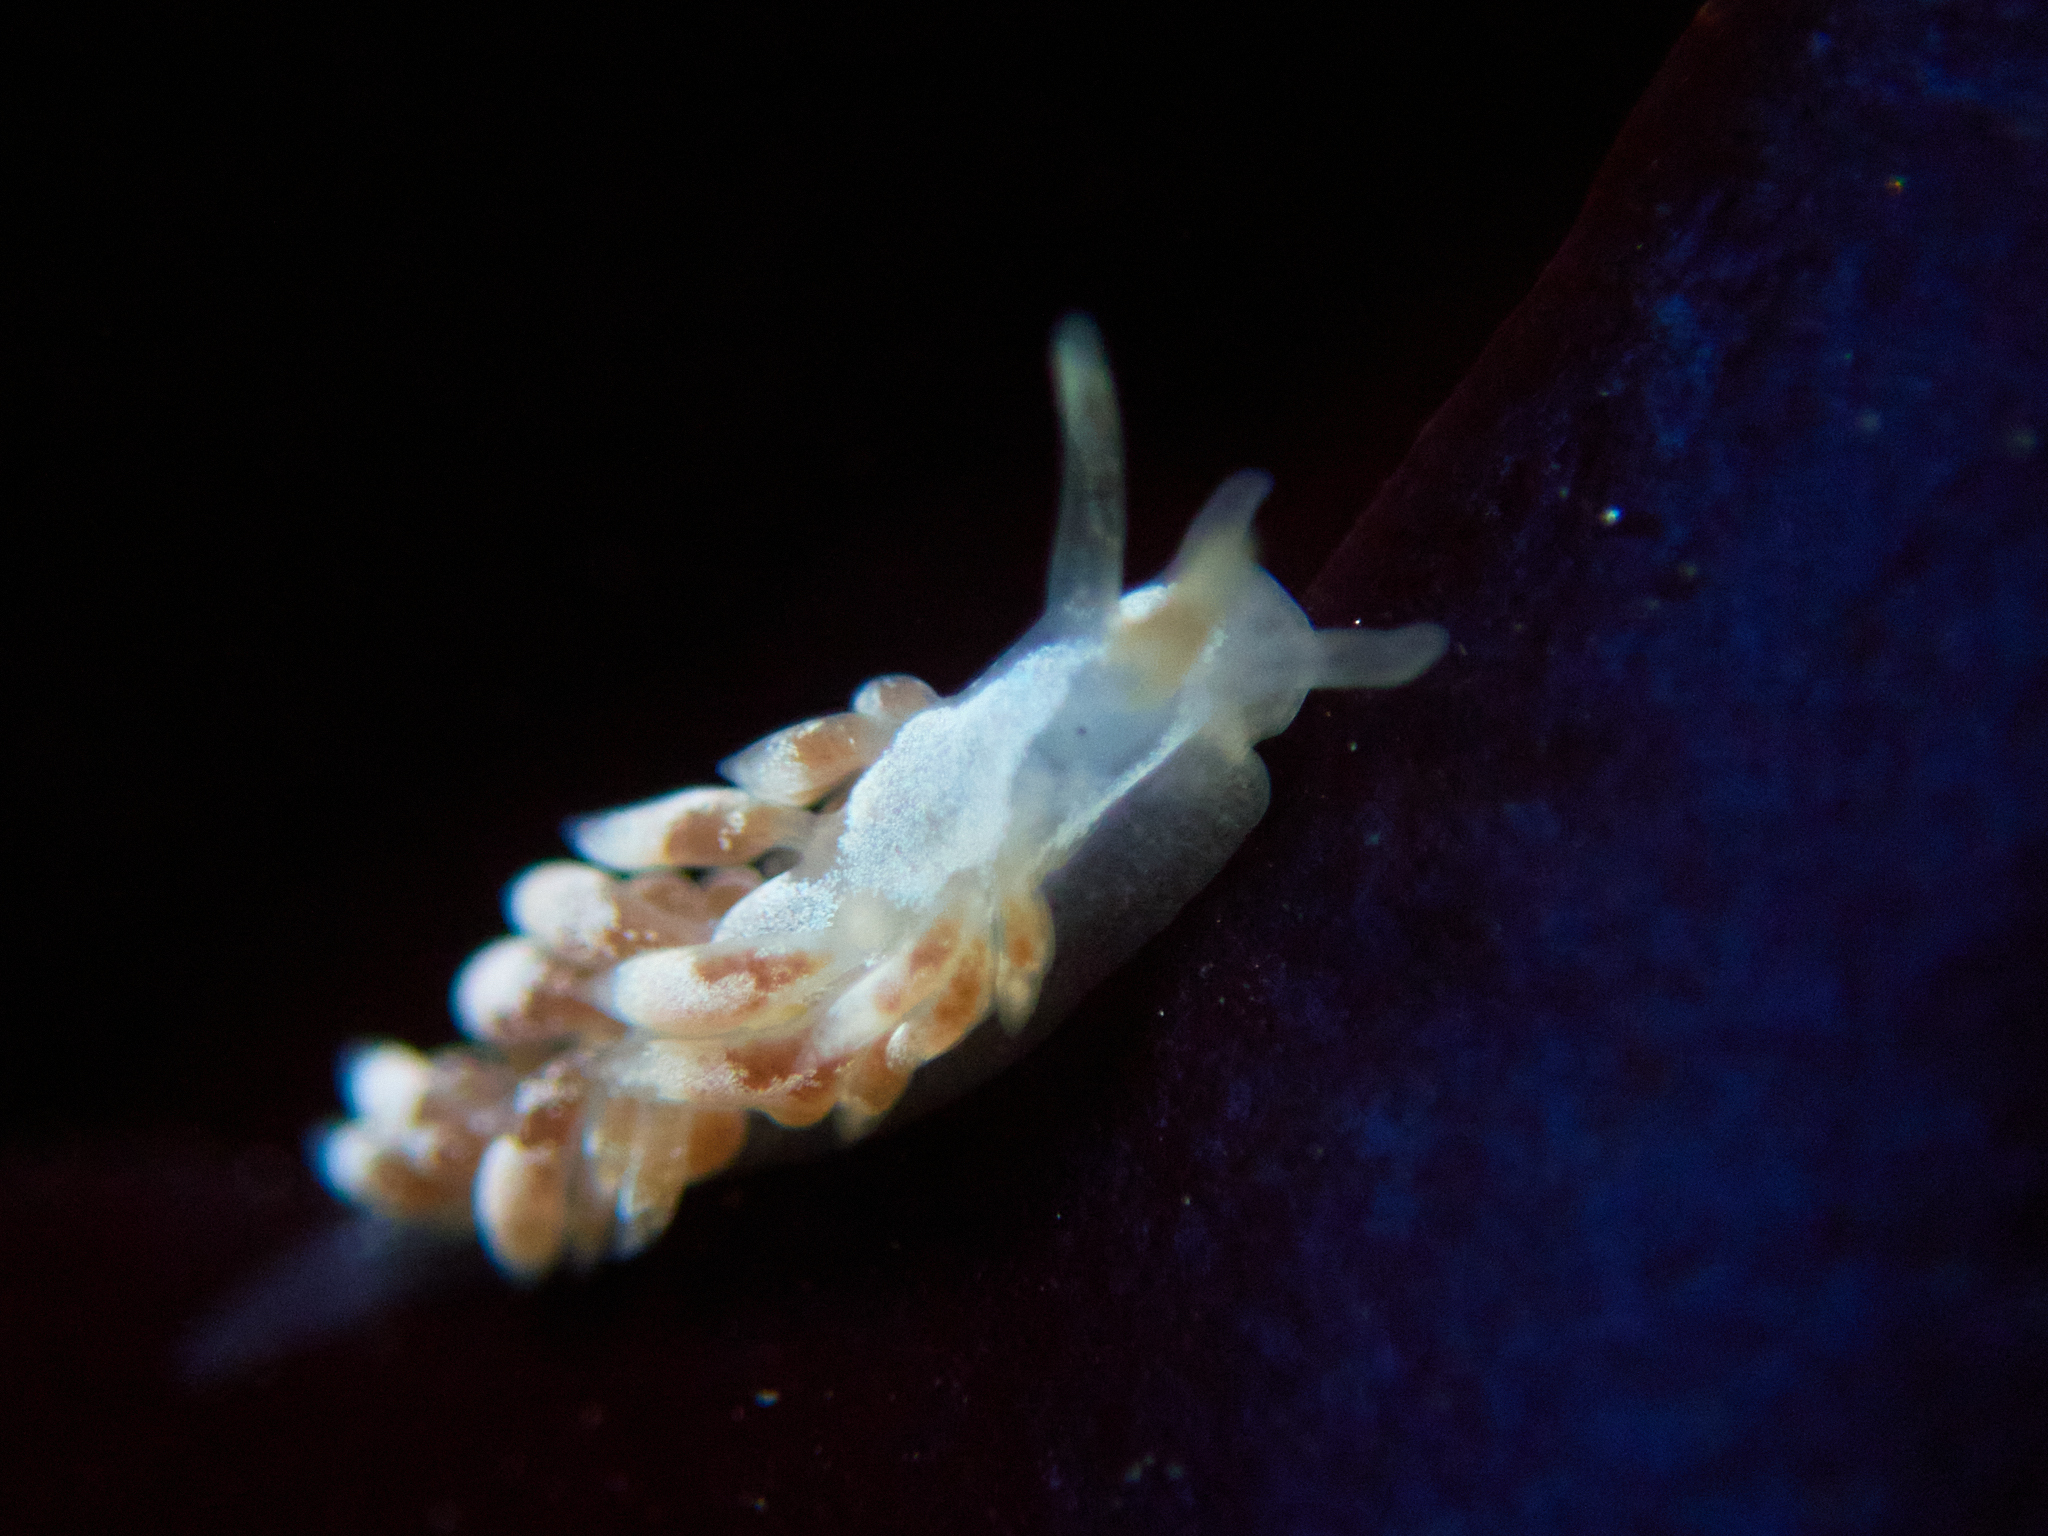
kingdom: Animalia
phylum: Mollusca
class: Gastropoda
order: Nudibranchia
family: Trinchesiidae
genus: Trinchesia
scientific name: Trinchesia albocrusta
